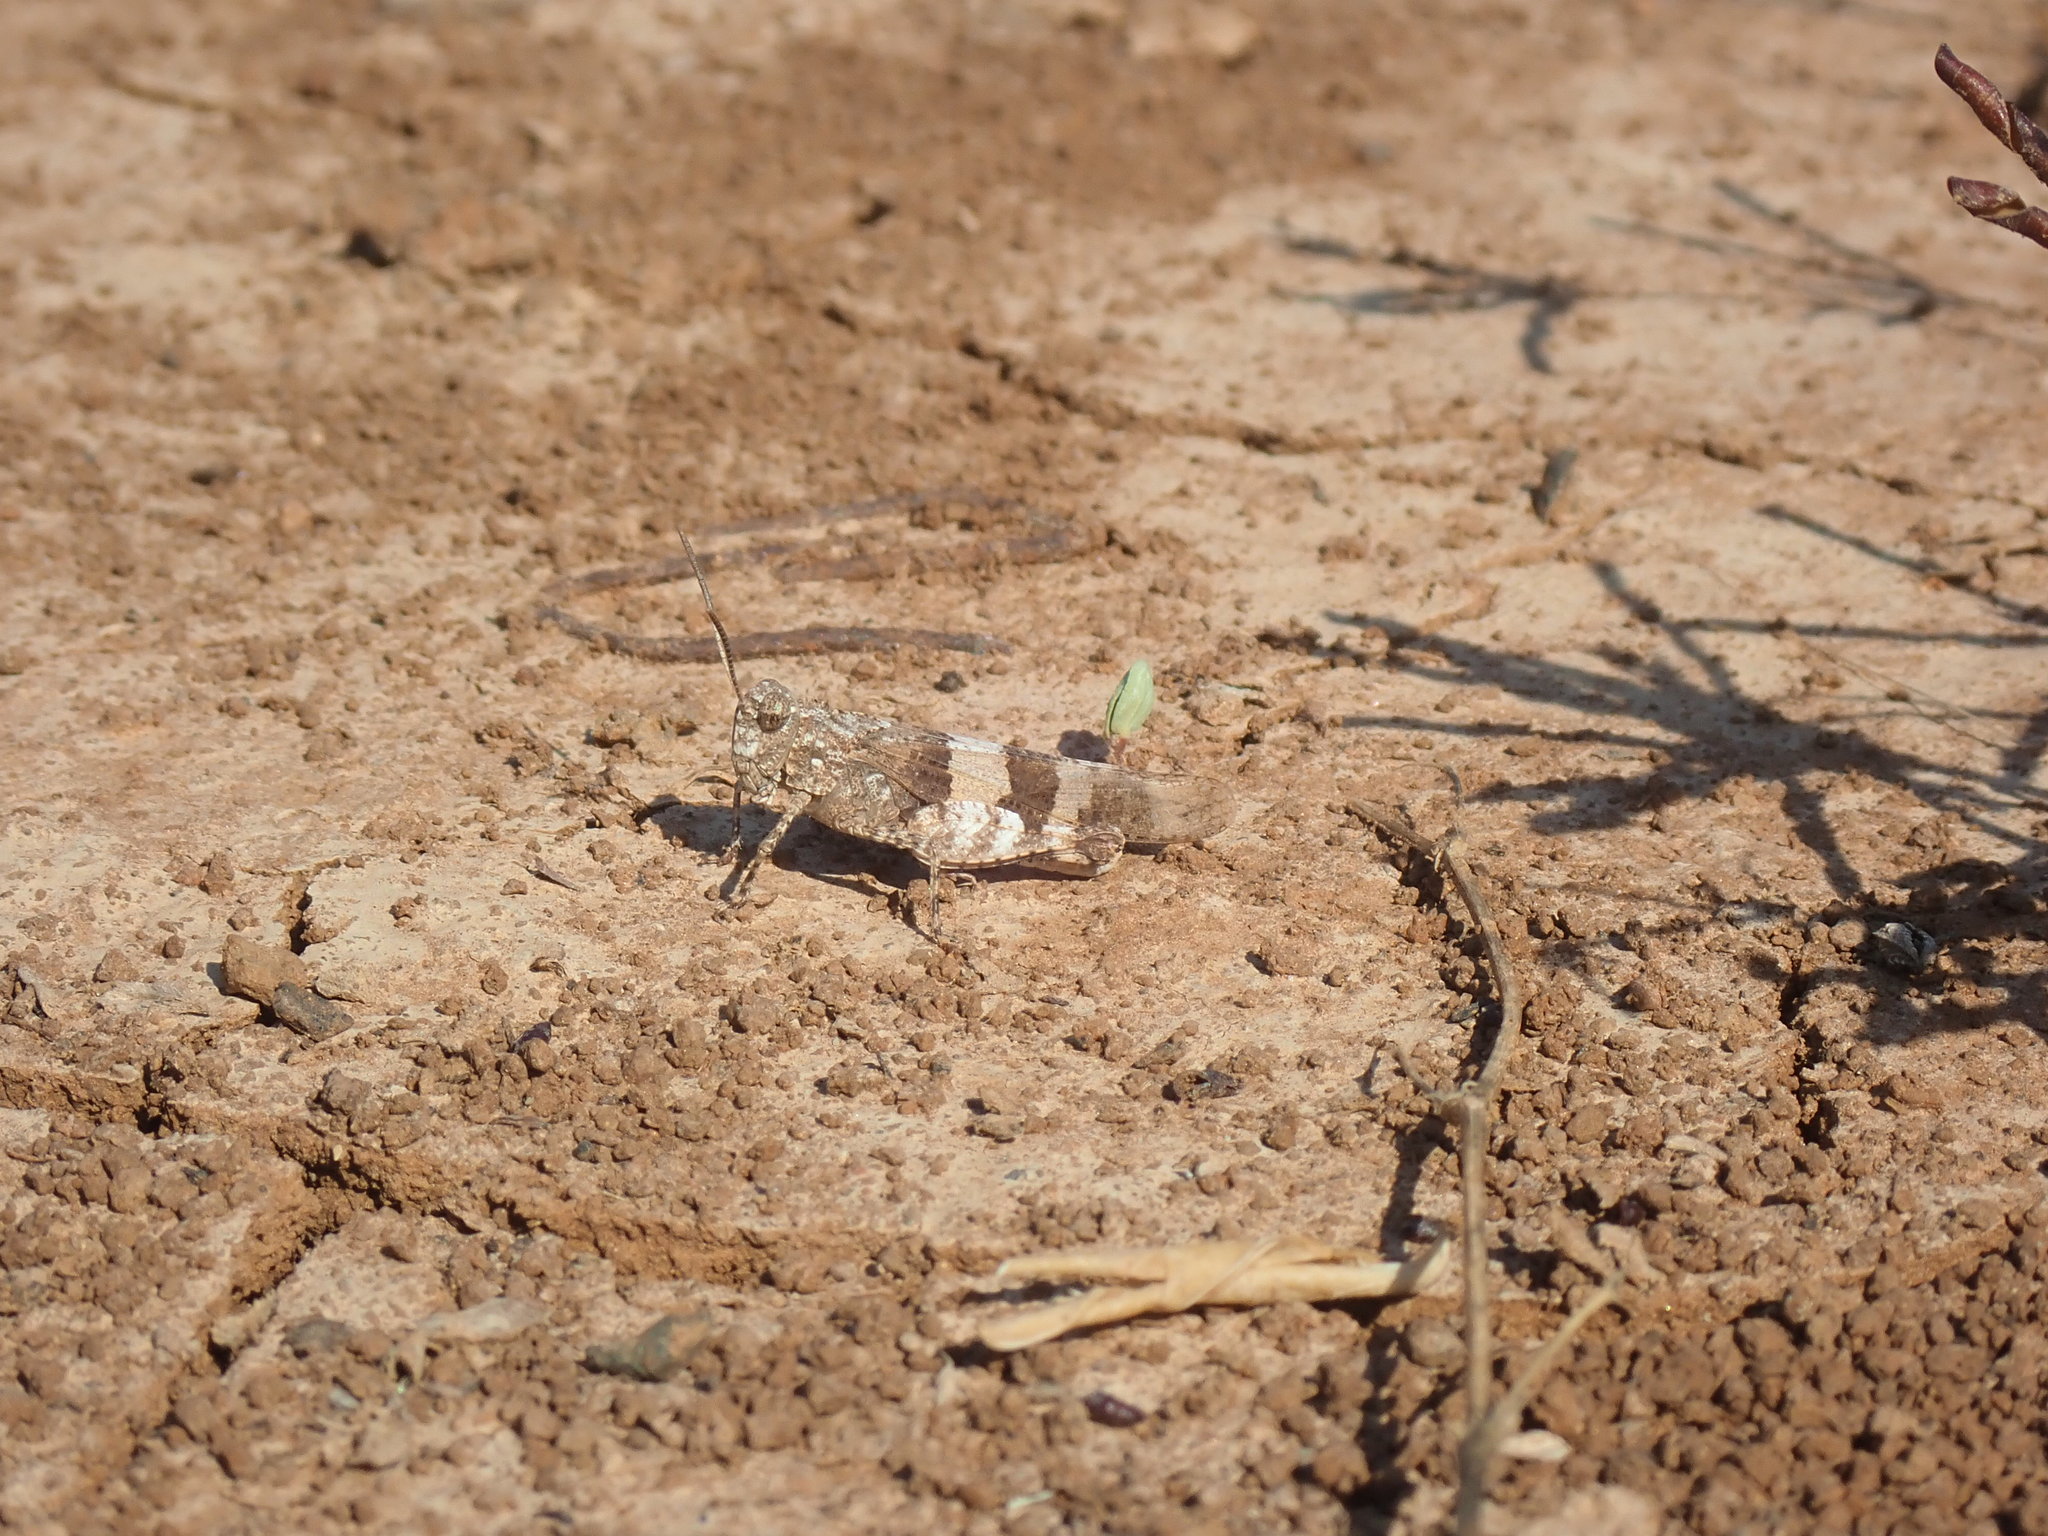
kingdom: Animalia
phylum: Arthropoda
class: Insecta
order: Orthoptera
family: Acrididae
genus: Oedipoda
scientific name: Oedipoda caerulescens
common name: Blue-winged grasshopper
